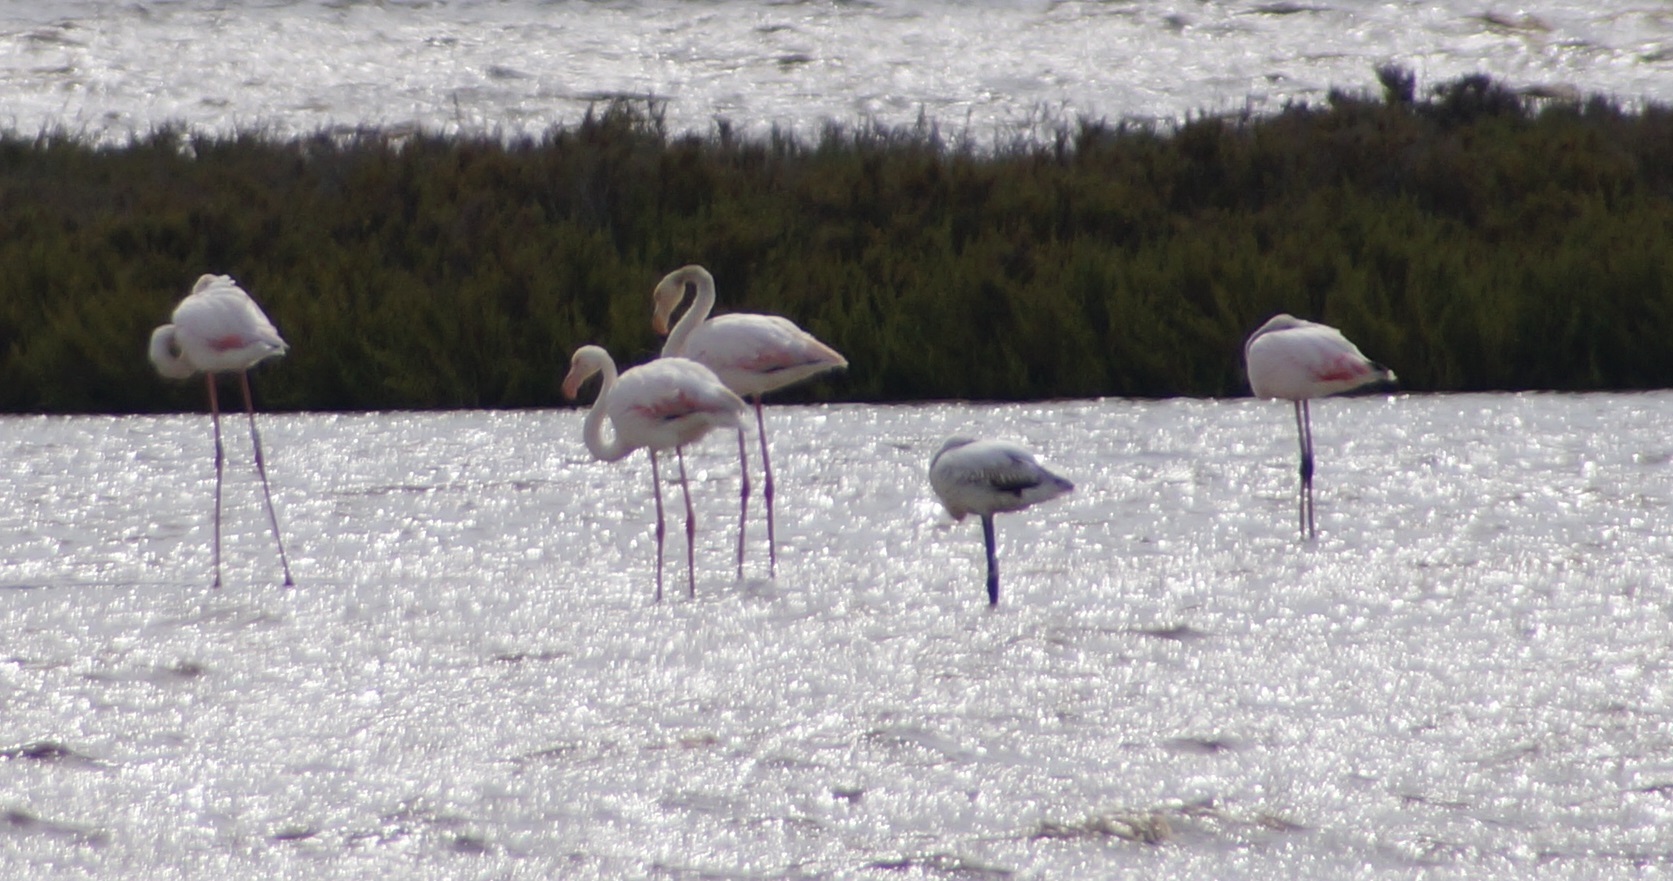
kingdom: Animalia
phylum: Chordata
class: Aves
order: Phoenicopteriformes
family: Phoenicopteridae
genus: Phoenicopterus
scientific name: Phoenicopterus roseus
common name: Greater flamingo
